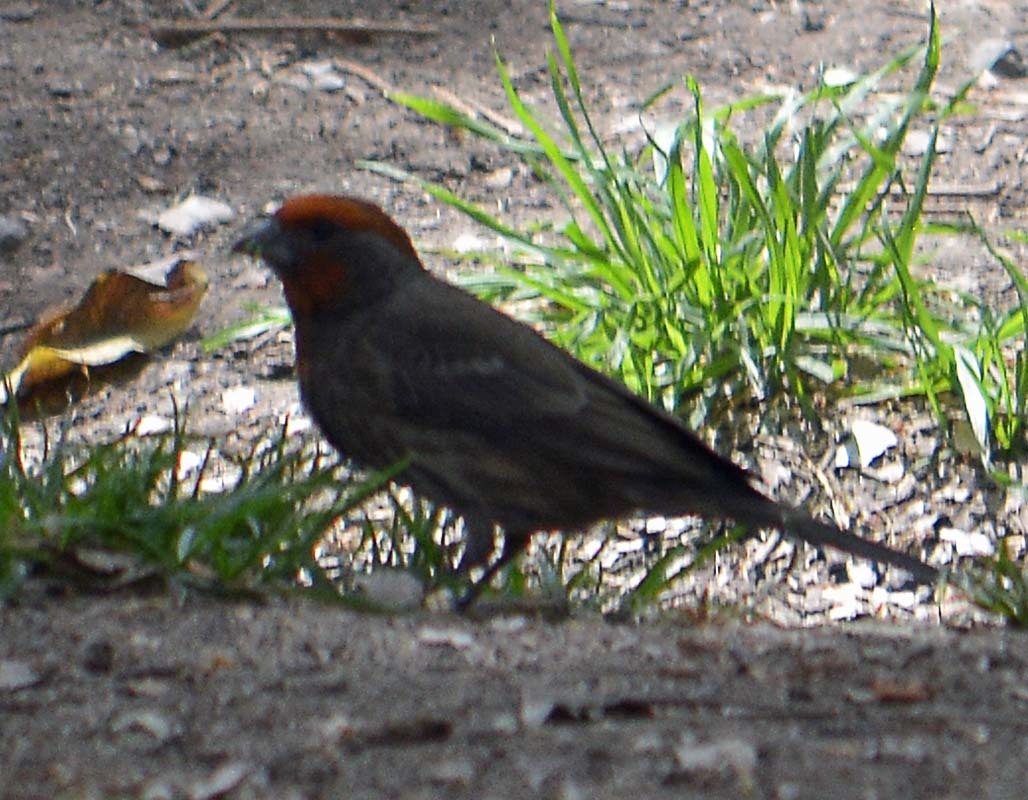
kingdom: Animalia
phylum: Chordata
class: Aves
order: Passeriformes
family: Fringillidae
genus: Haemorhous
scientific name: Haemorhous mexicanus
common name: House finch
